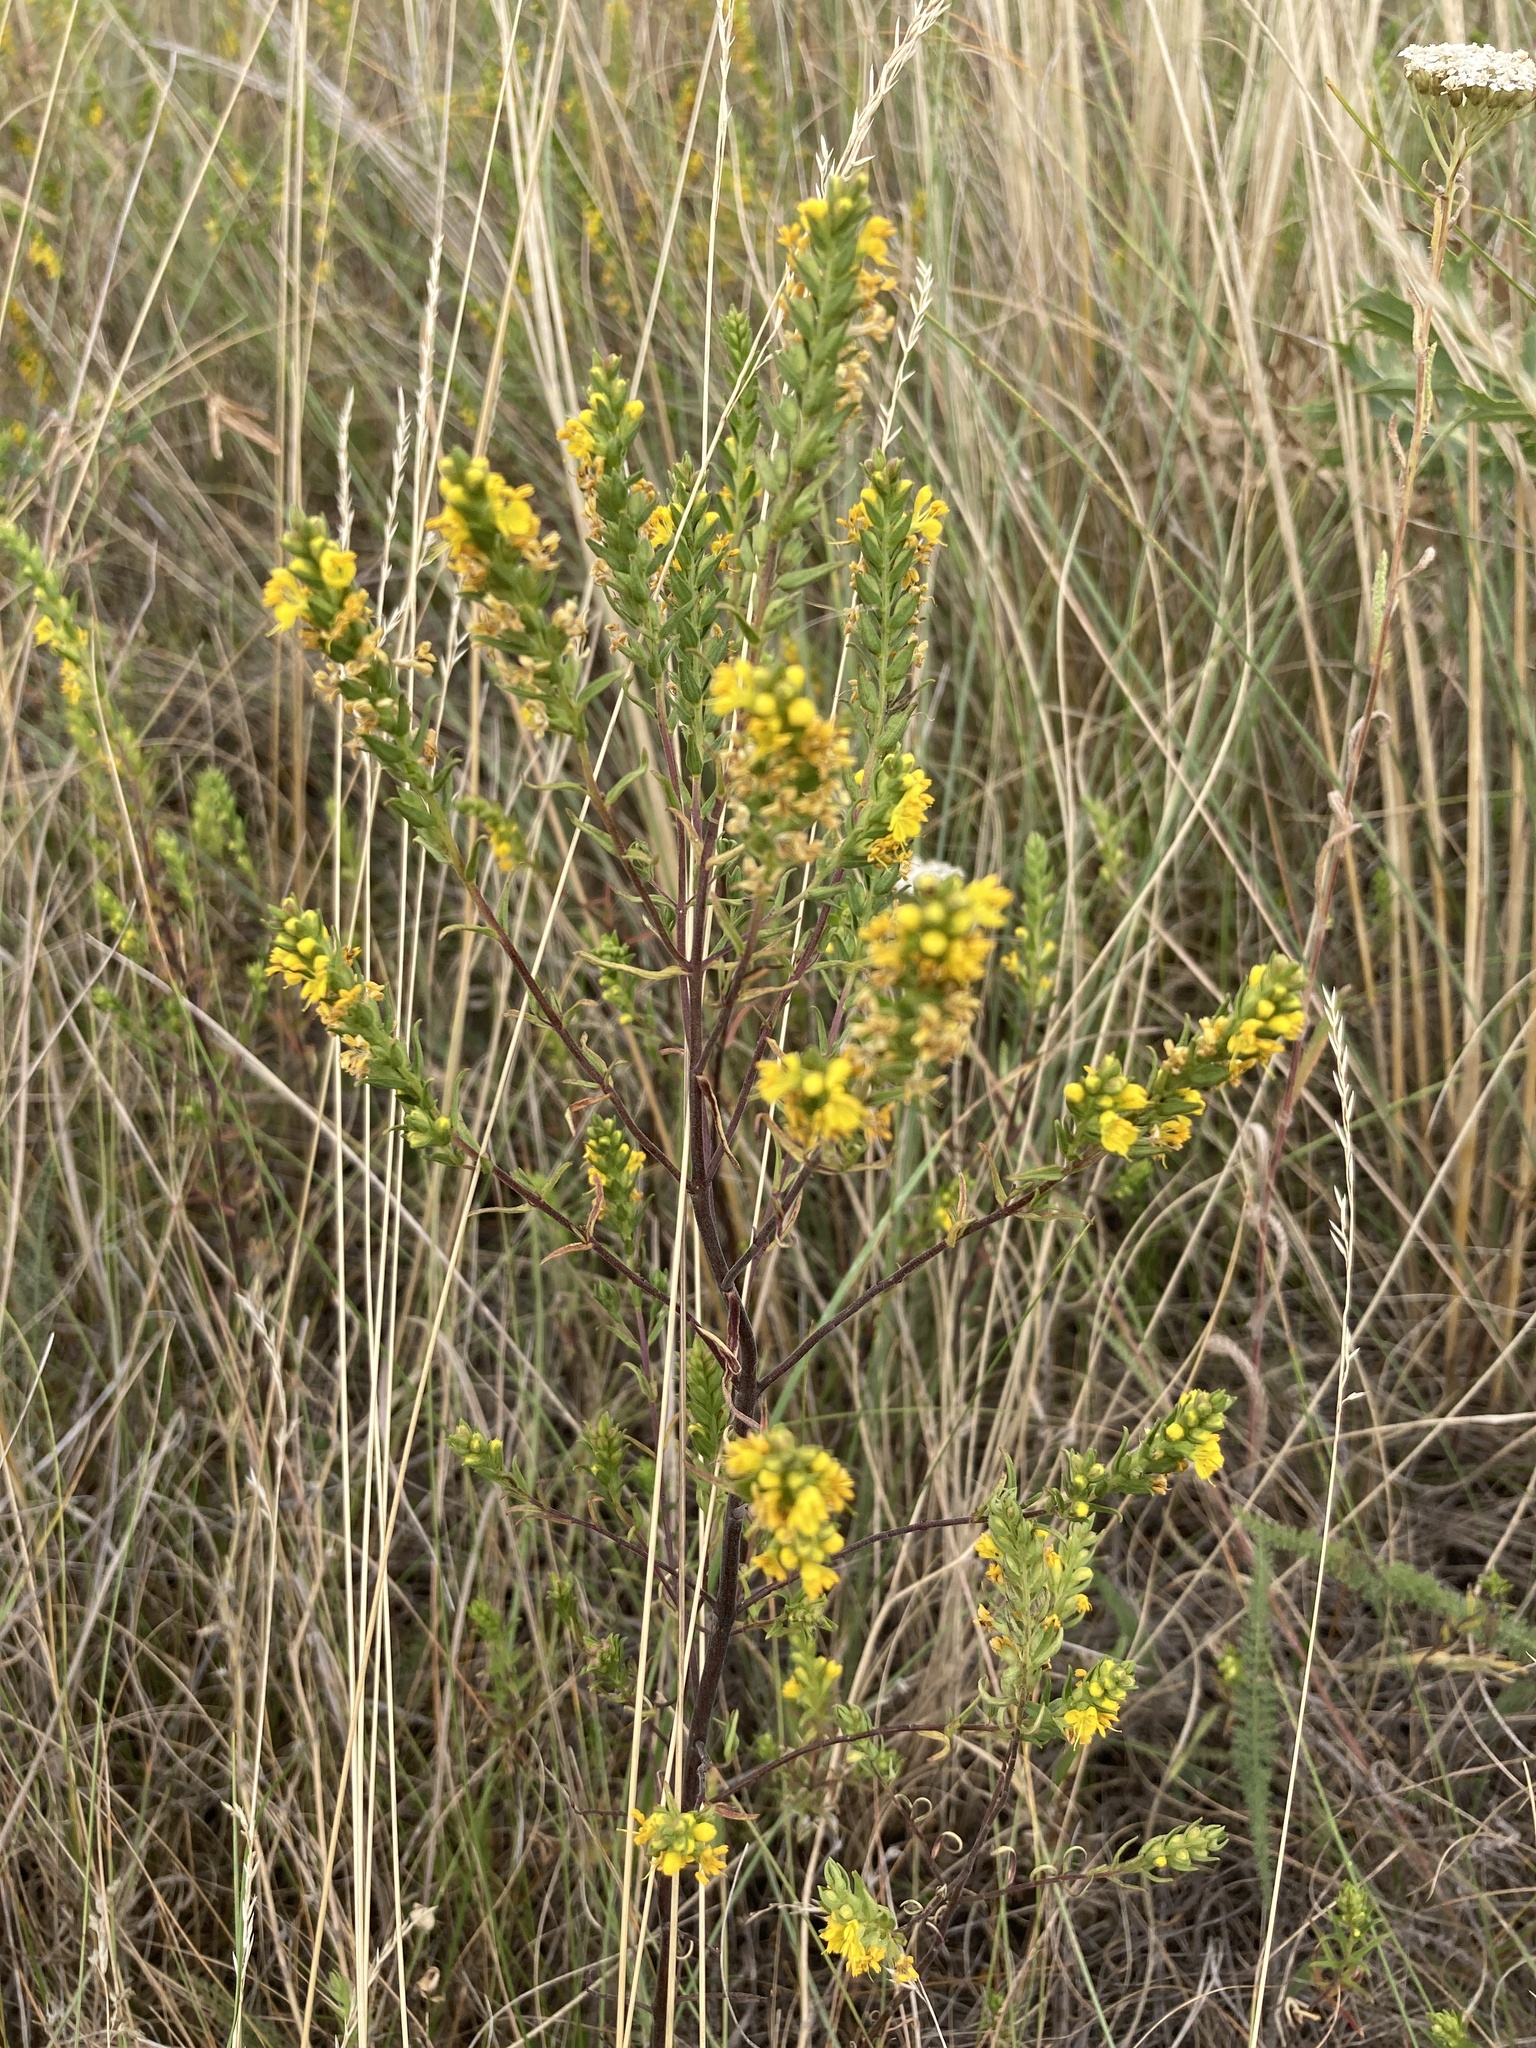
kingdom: Plantae
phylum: Tracheophyta
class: Magnoliopsida
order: Lamiales
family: Orobanchaceae
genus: Odontites
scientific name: Odontites luteus
